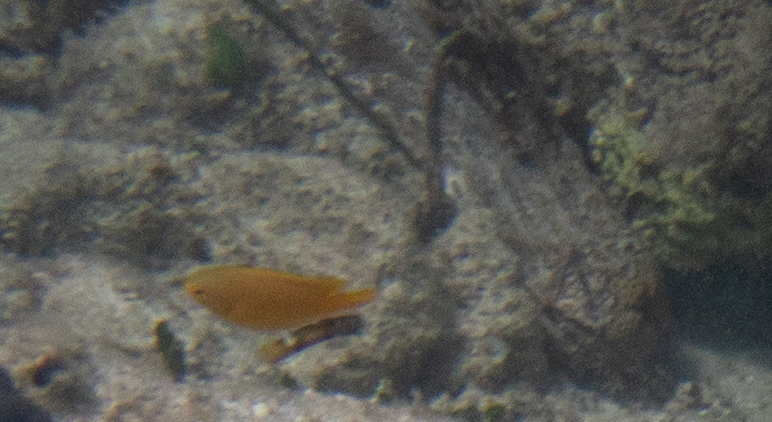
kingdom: Animalia
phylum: Chordata
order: Perciformes
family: Pomacentridae
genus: Pomacentrus
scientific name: Pomacentrus moluccensis
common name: Lemon damsel
